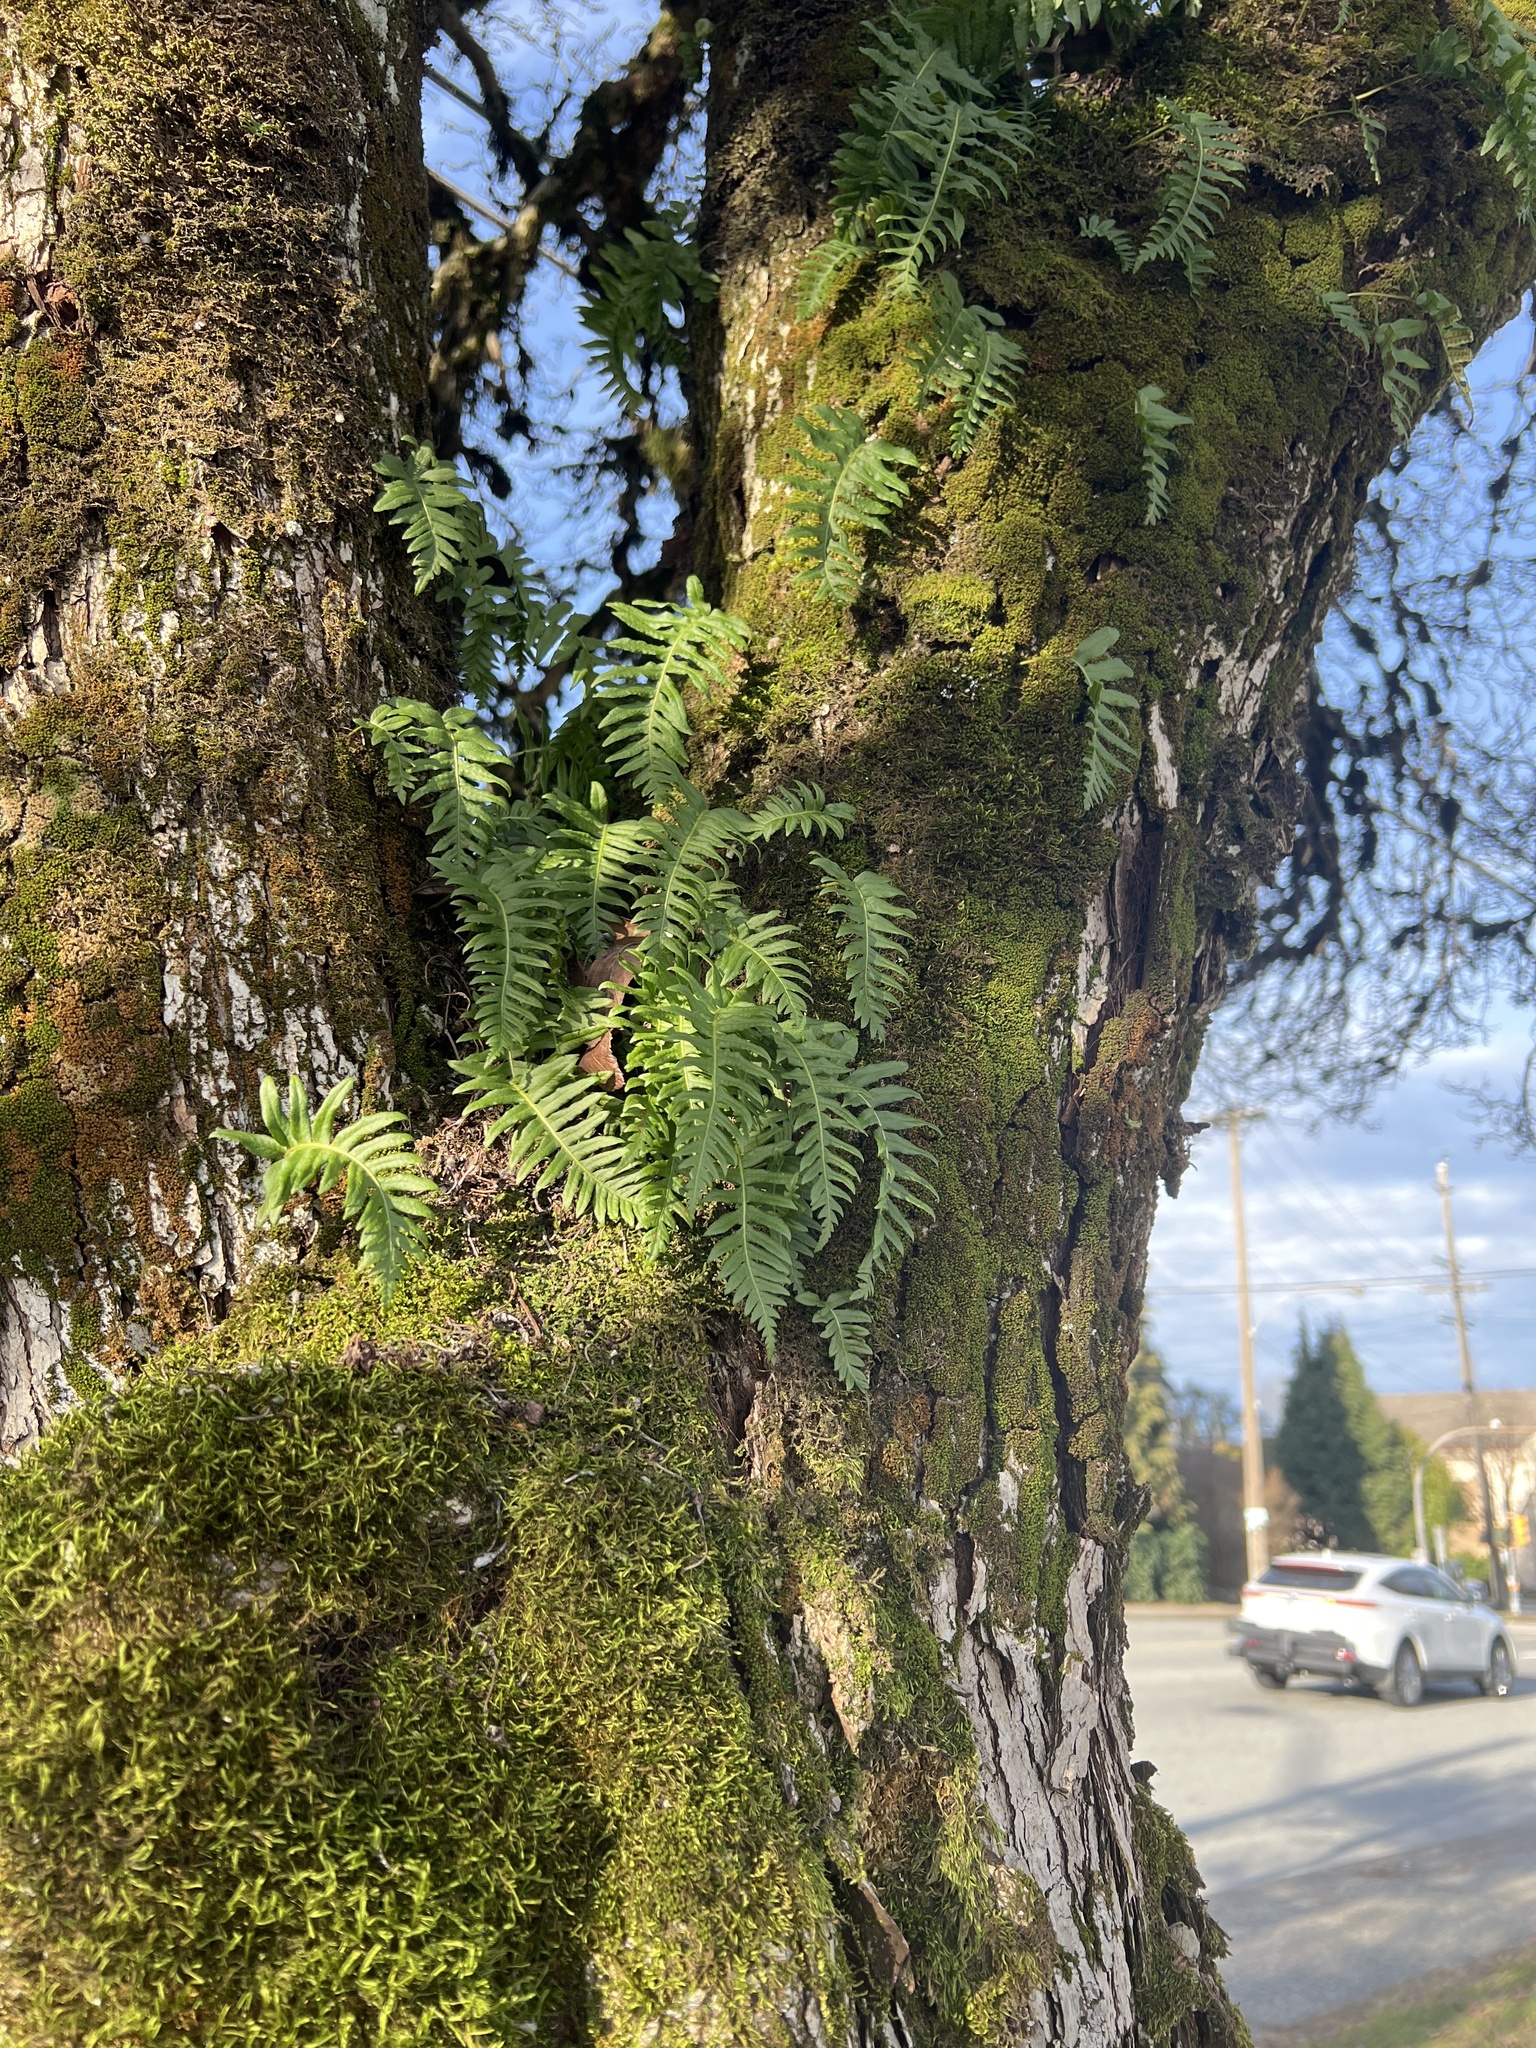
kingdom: Plantae
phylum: Tracheophyta
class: Polypodiopsida
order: Polypodiales
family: Polypodiaceae
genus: Polypodium
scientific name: Polypodium glycyrrhiza
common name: Licorice fern
